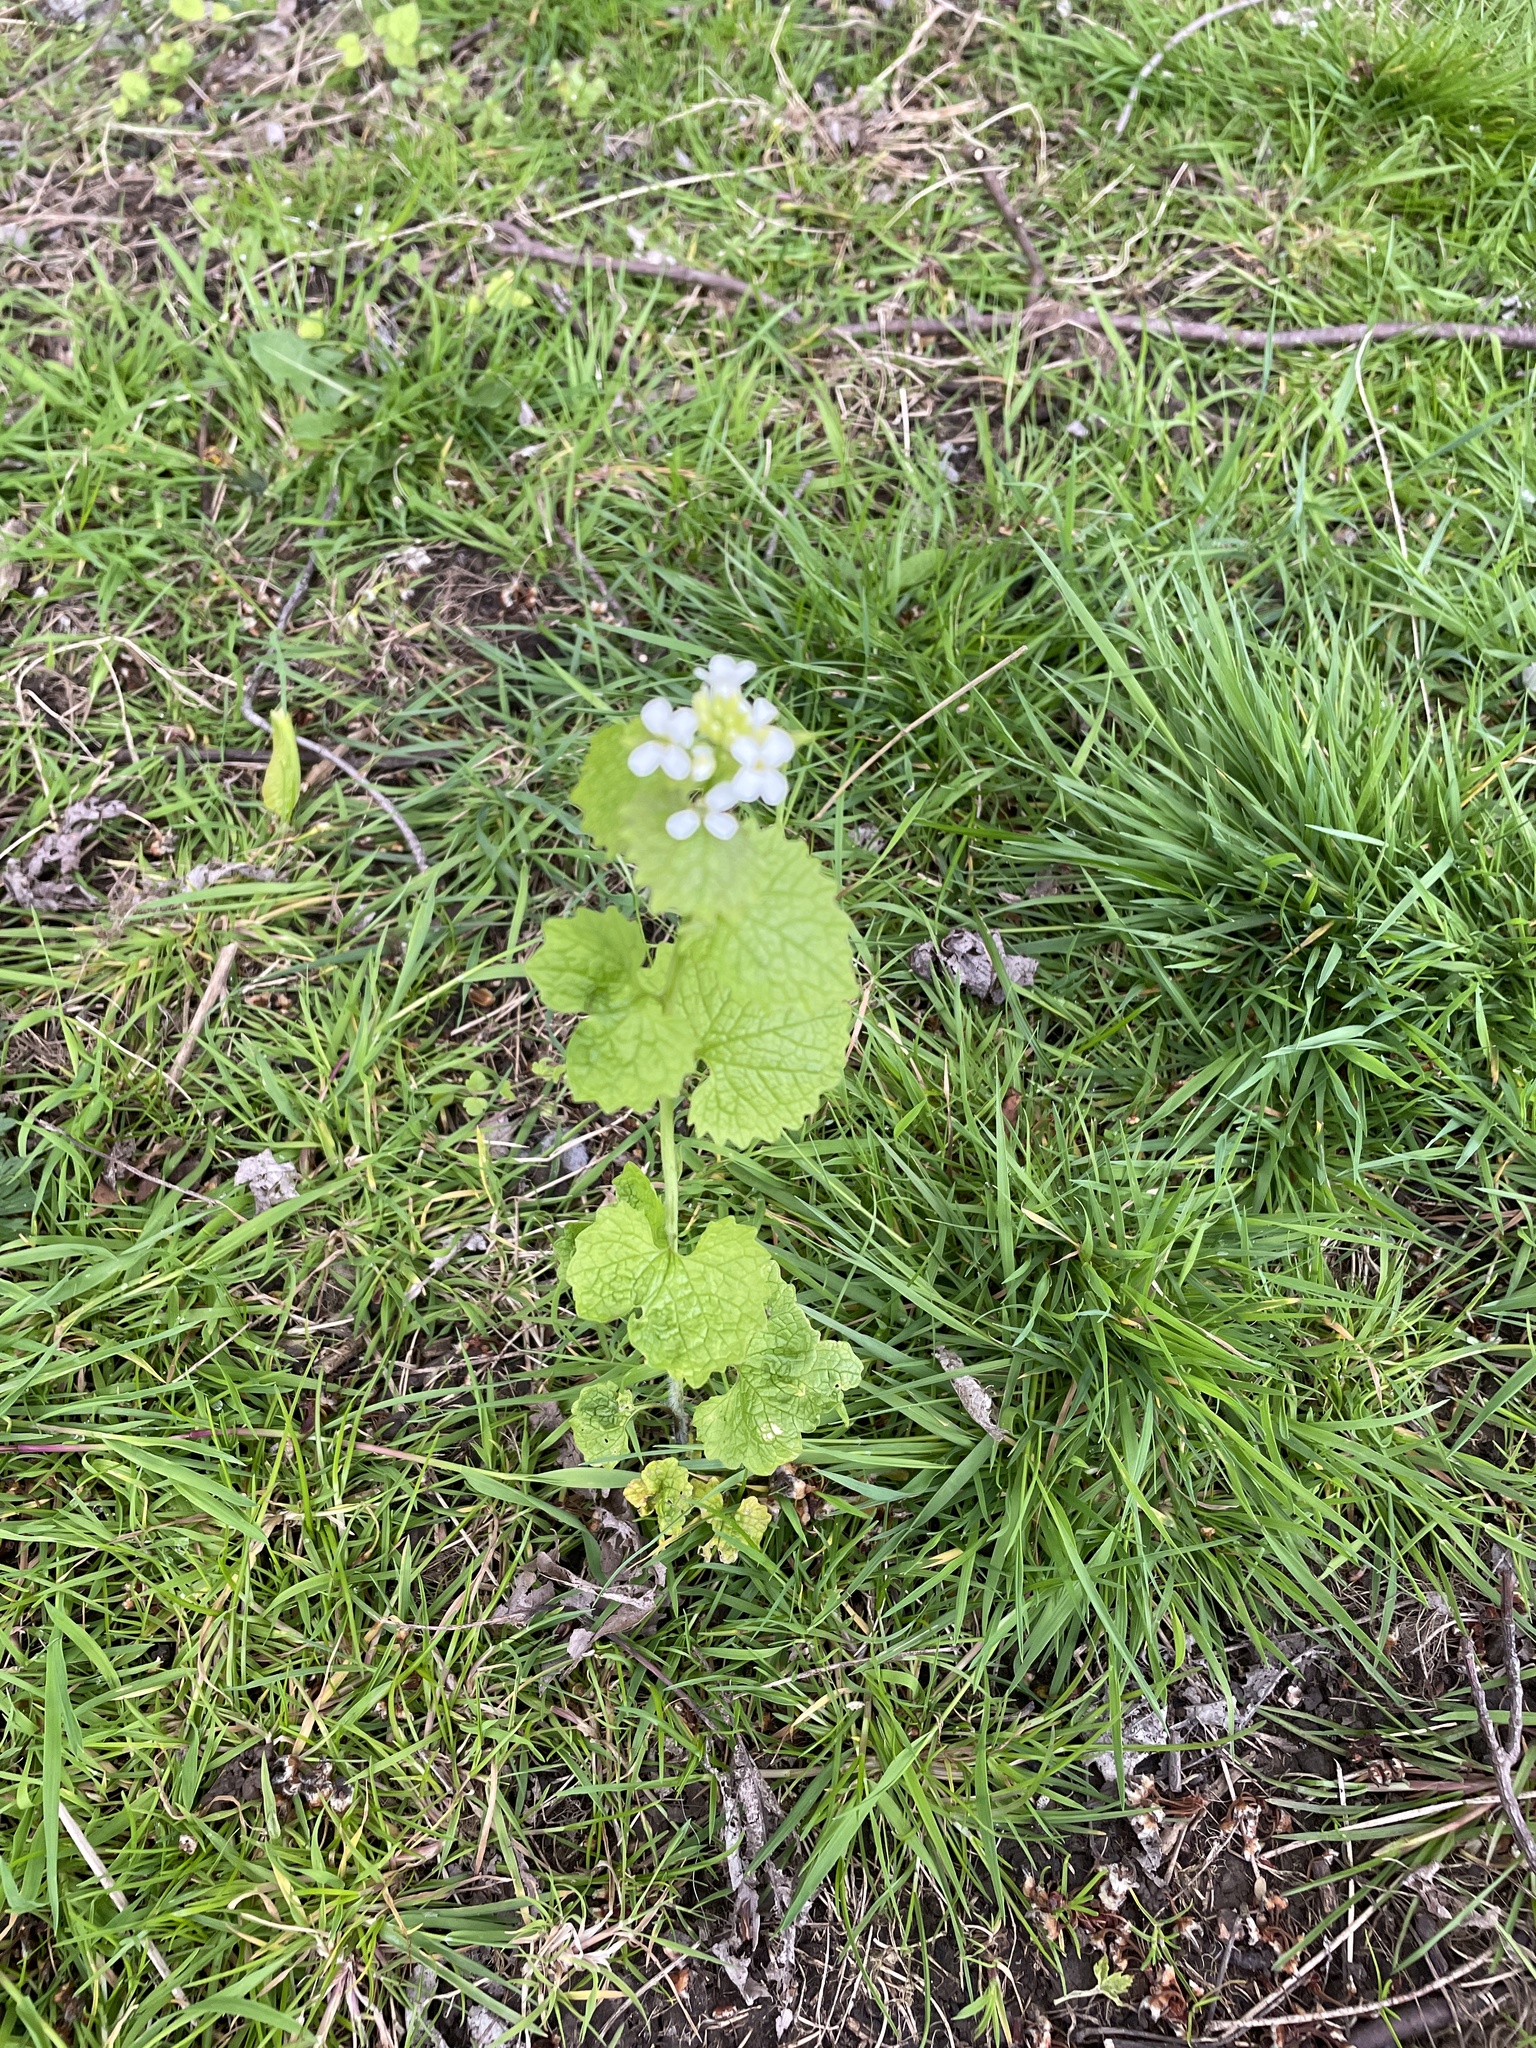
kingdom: Plantae
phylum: Tracheophyta
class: Magnoliopsida
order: Brassicales
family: Brassicaceae
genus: Alliaria
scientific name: Alliaria petiolata
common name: Garlic mustard
